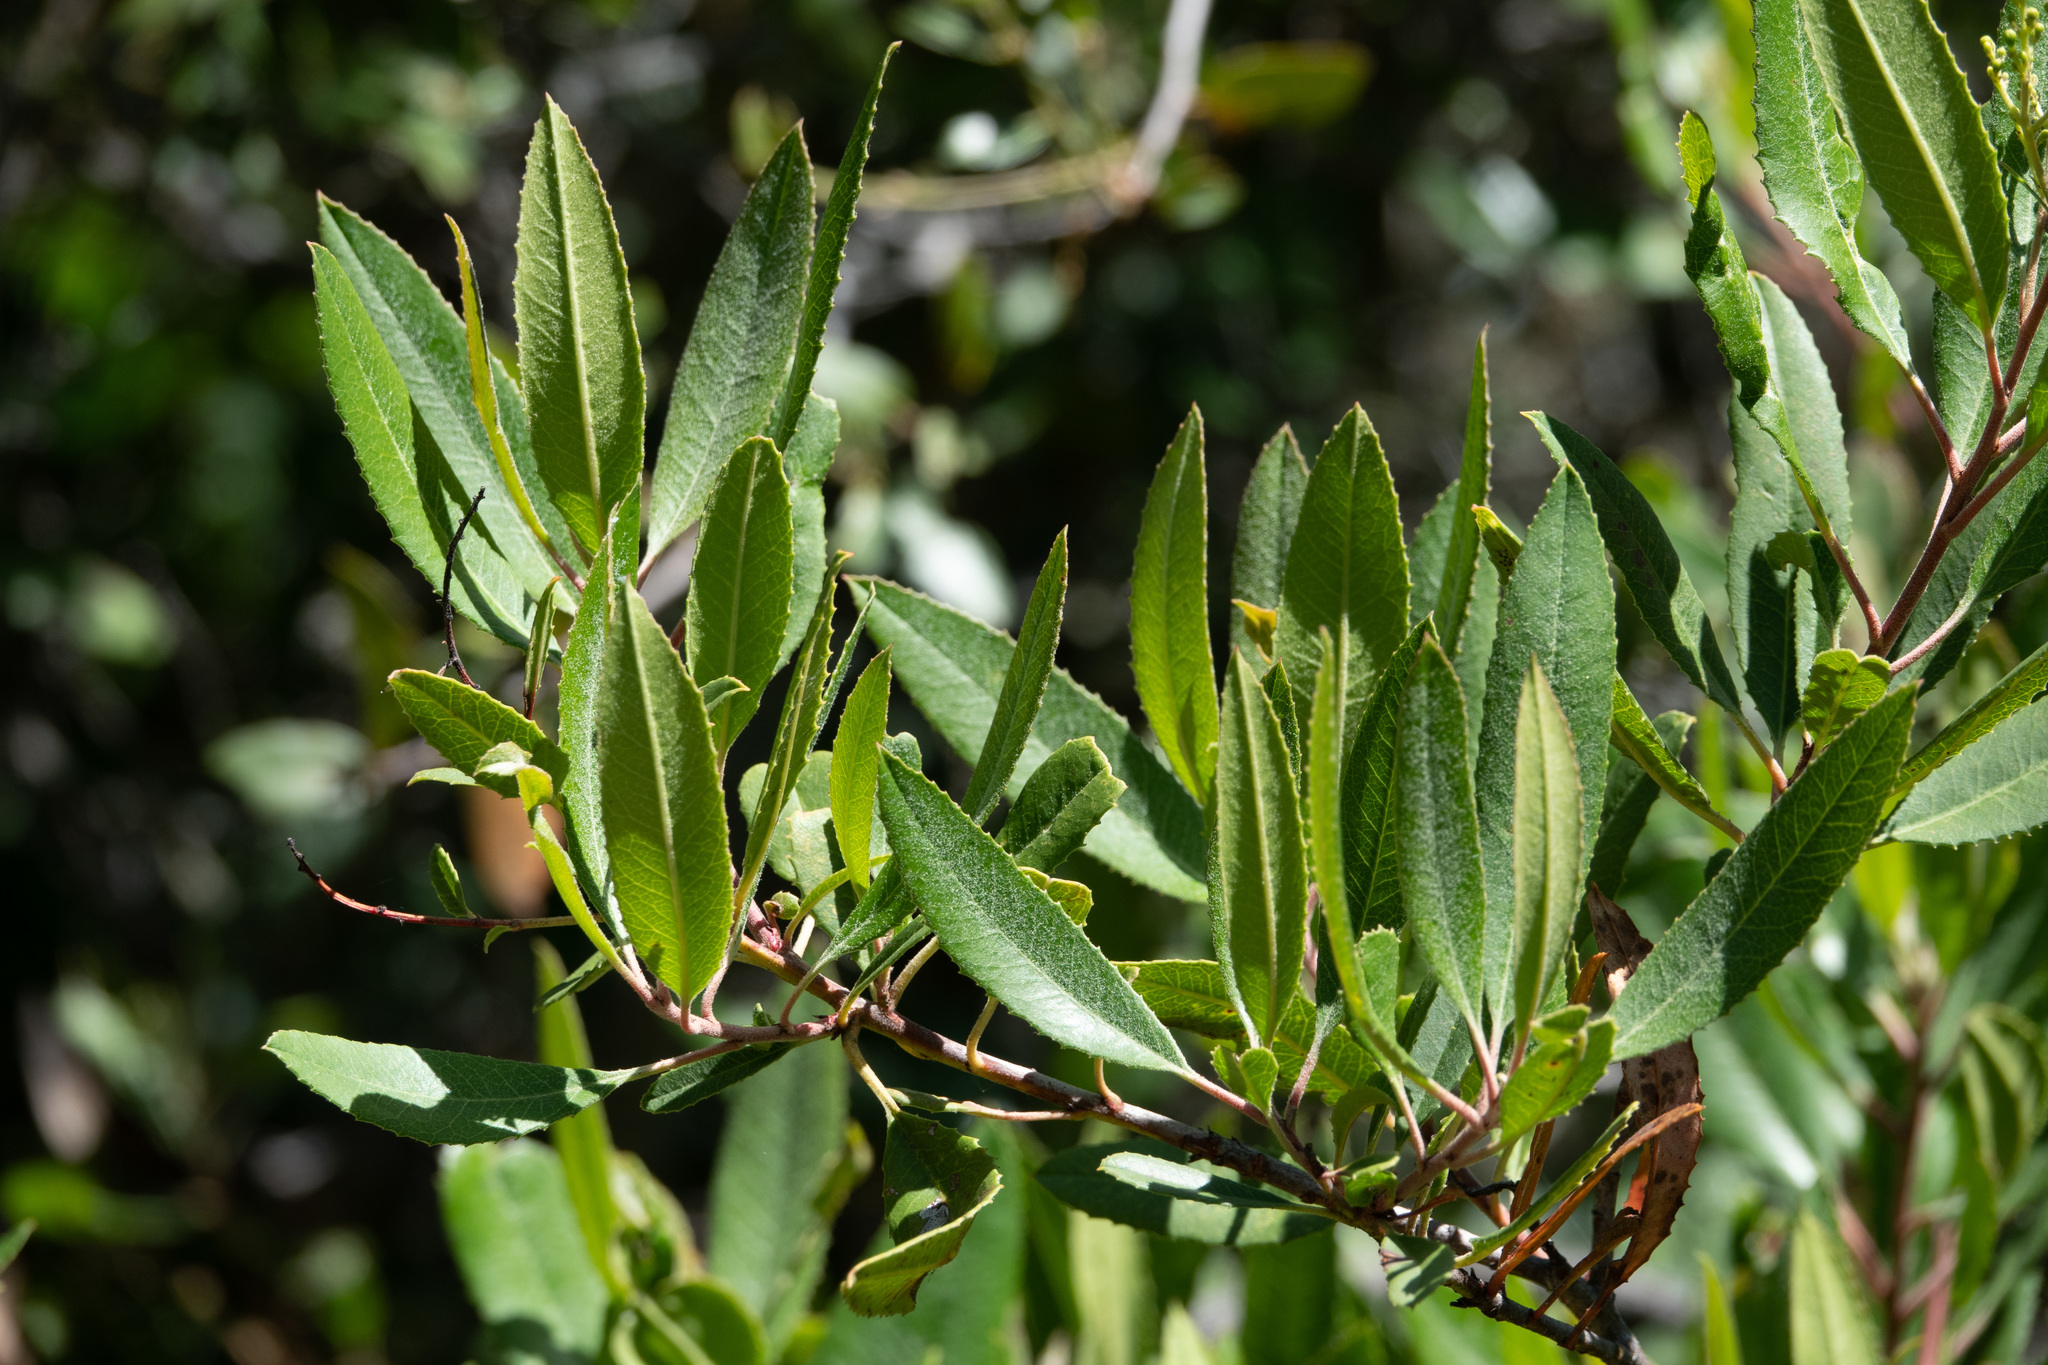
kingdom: Plantae
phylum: Tracheophyta
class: Magnoliopsida
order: Rosales
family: Rosaceae
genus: Heteromeles
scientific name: Heteromeles arbutifolia
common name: California-holly
